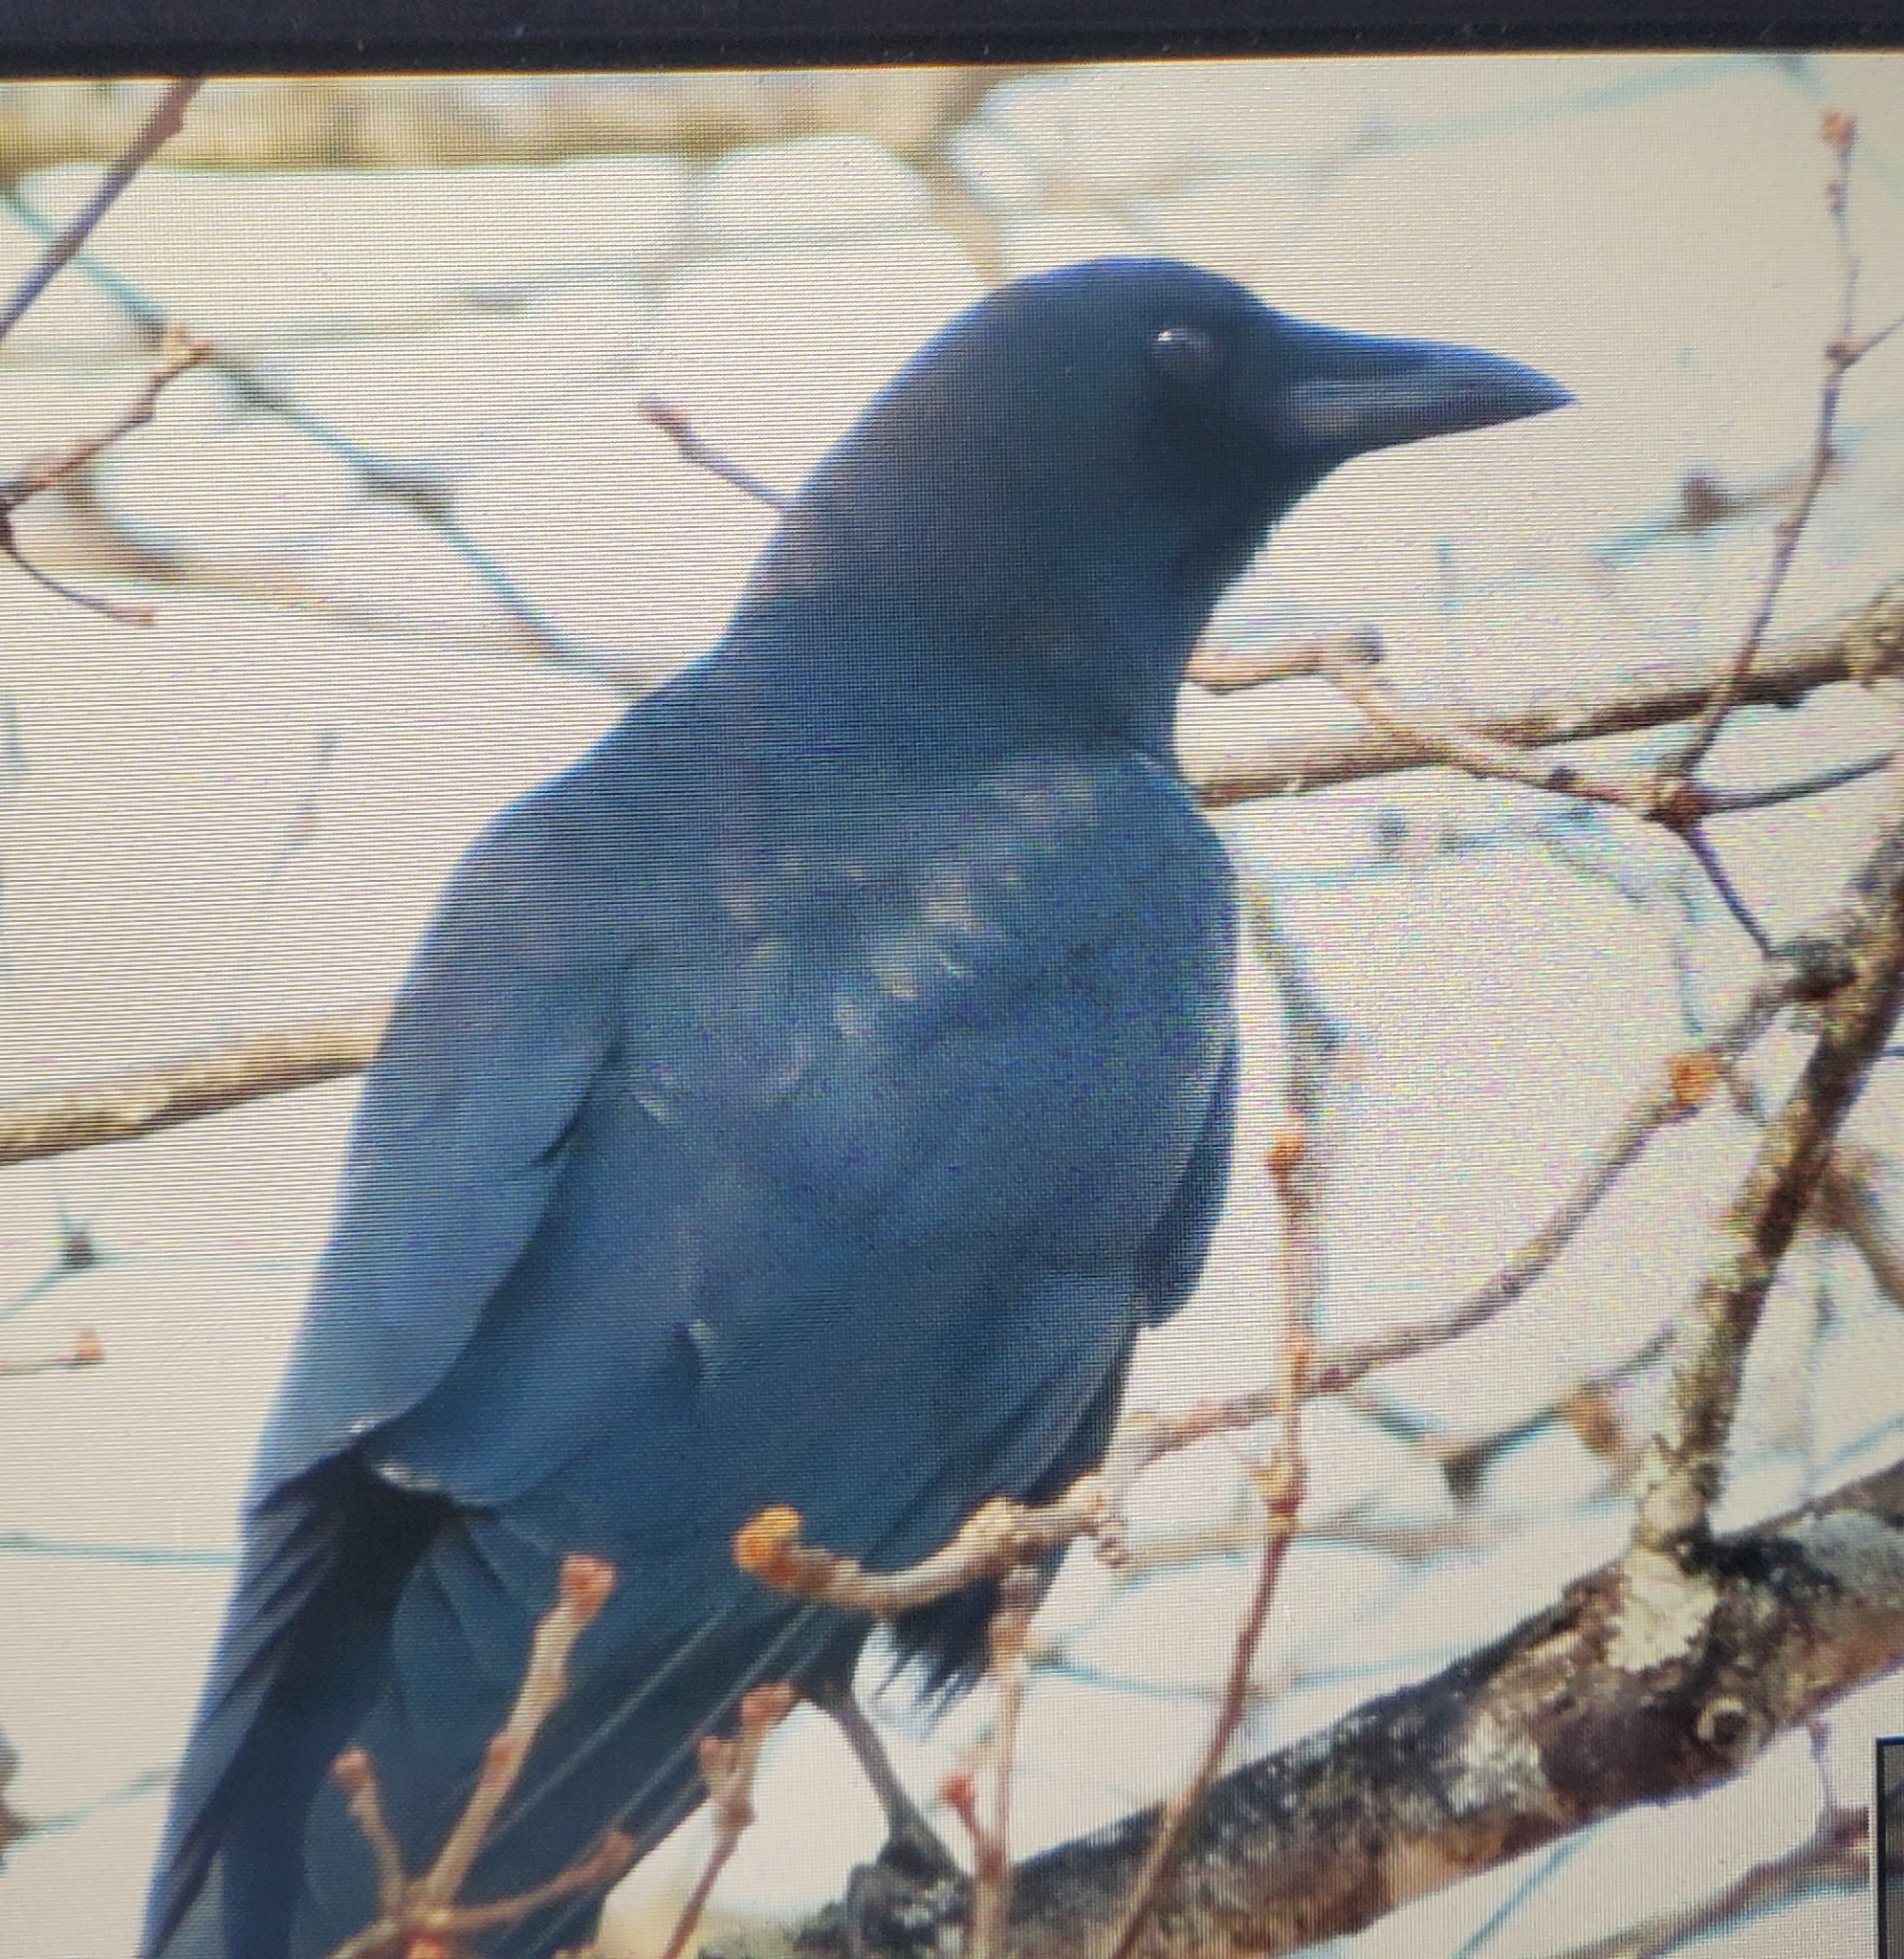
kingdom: Animalia
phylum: Chordata
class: Aves
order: Passeriformes
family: Corvidae
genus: Corvus
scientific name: Corvus brachyrhynchos
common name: American crow
